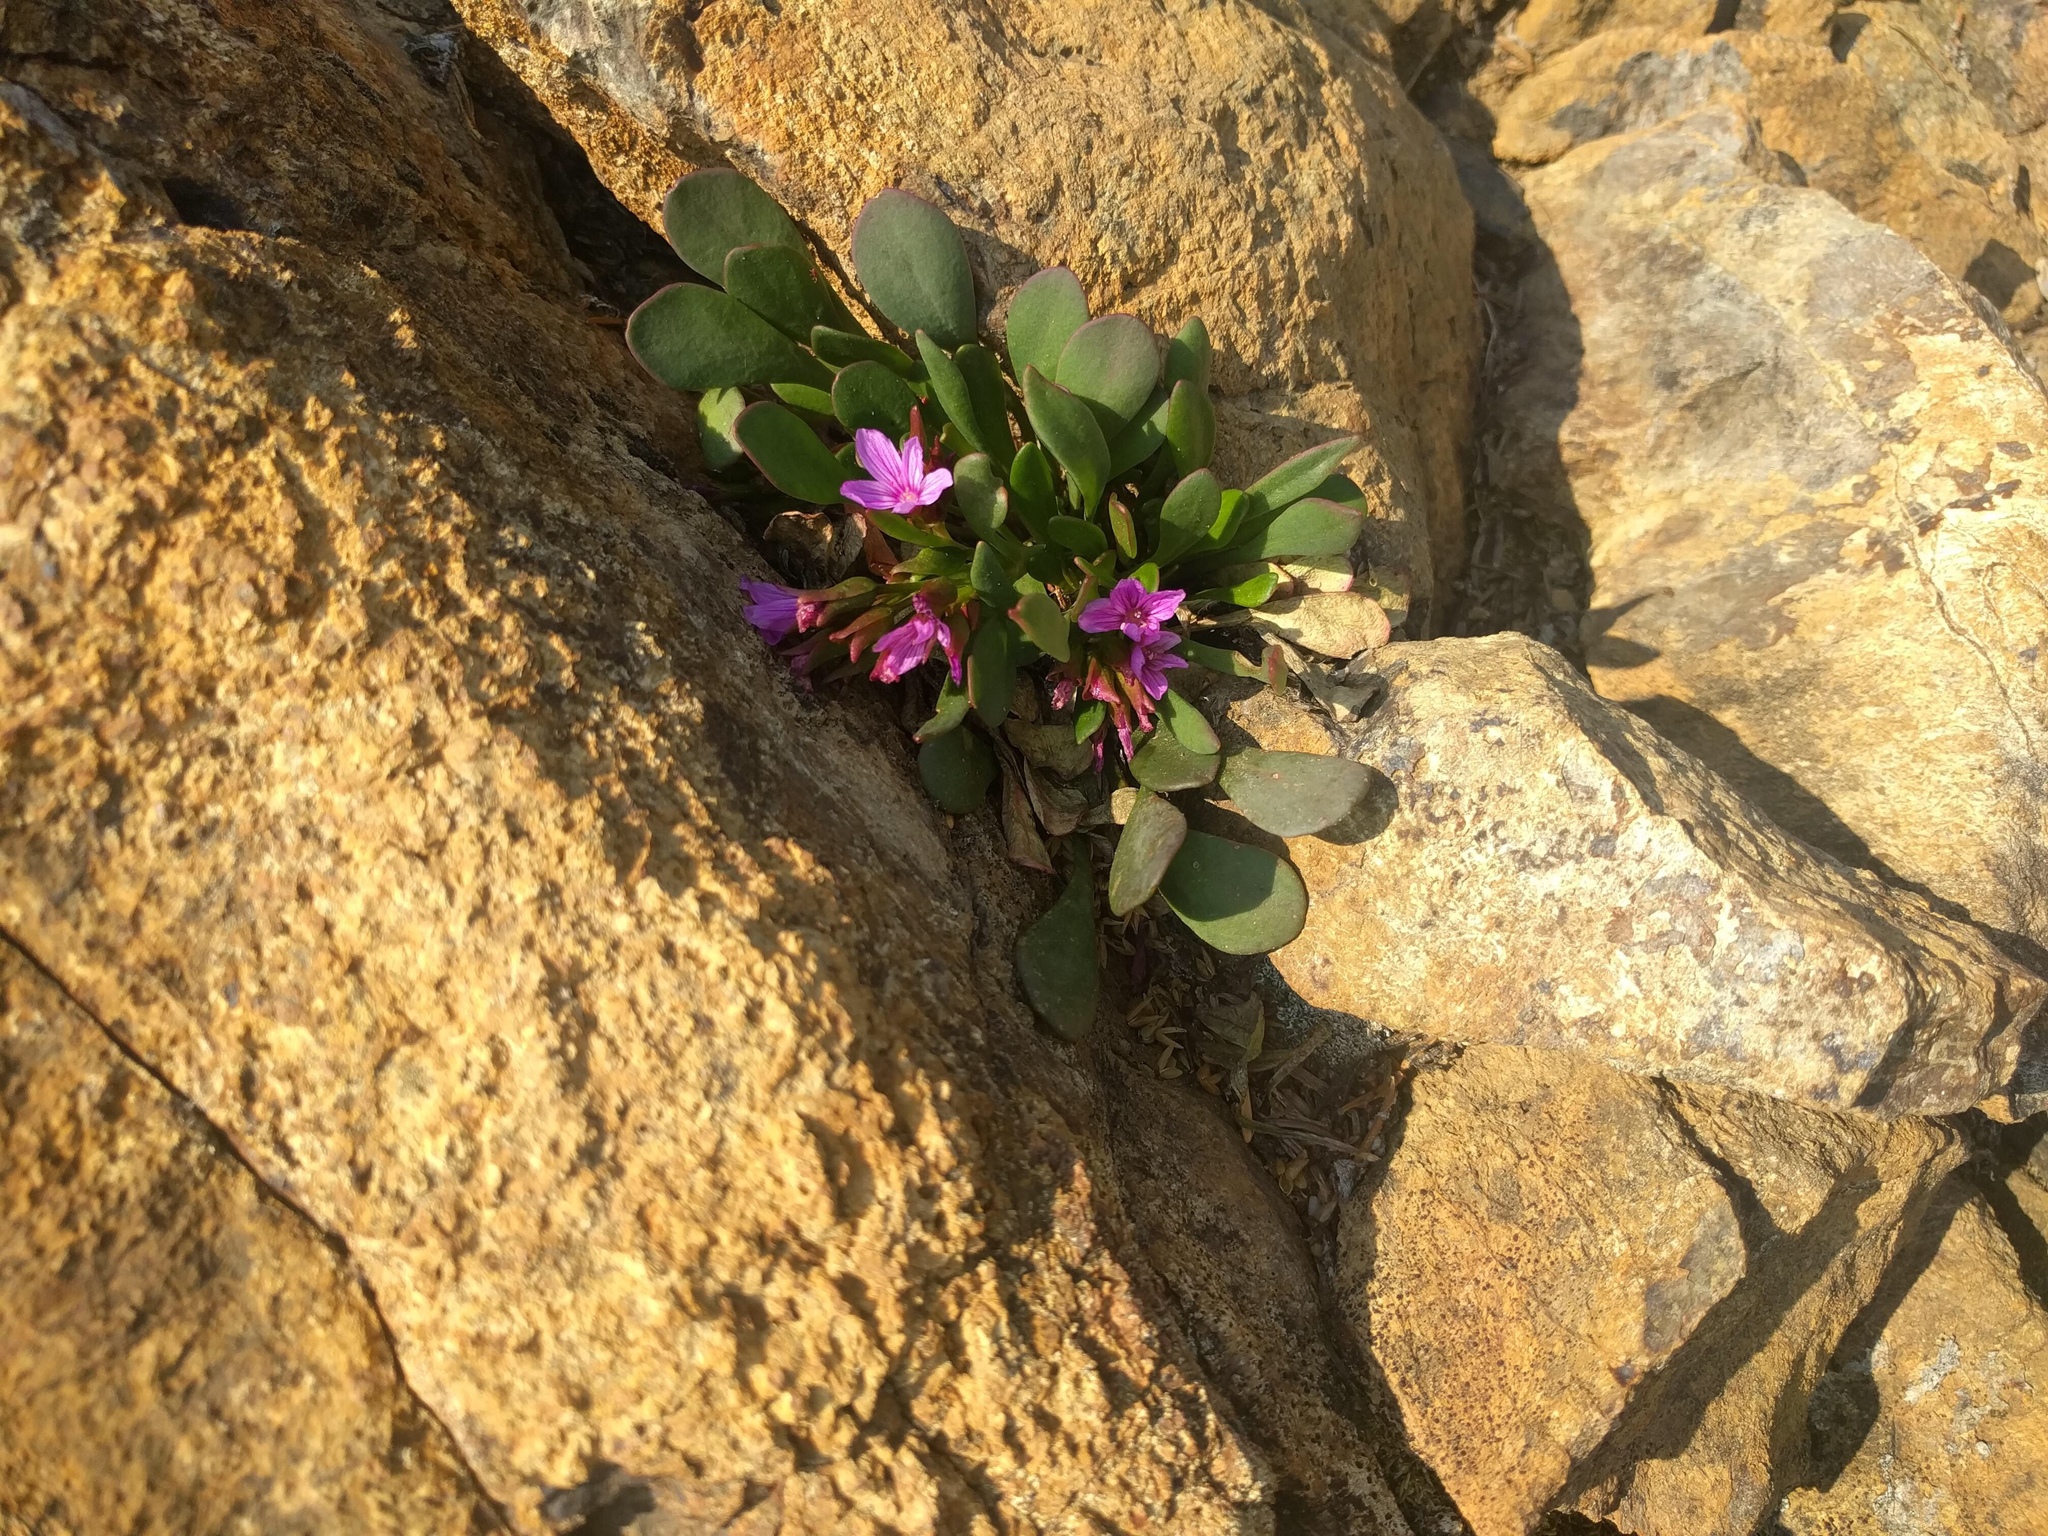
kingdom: Plantae
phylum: Tracheophyta
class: Magnoliopsida
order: Caryophyllales
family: Montiaceae
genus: Claytonia
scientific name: Claytonia megarhiza
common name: Alpine spring beauty
